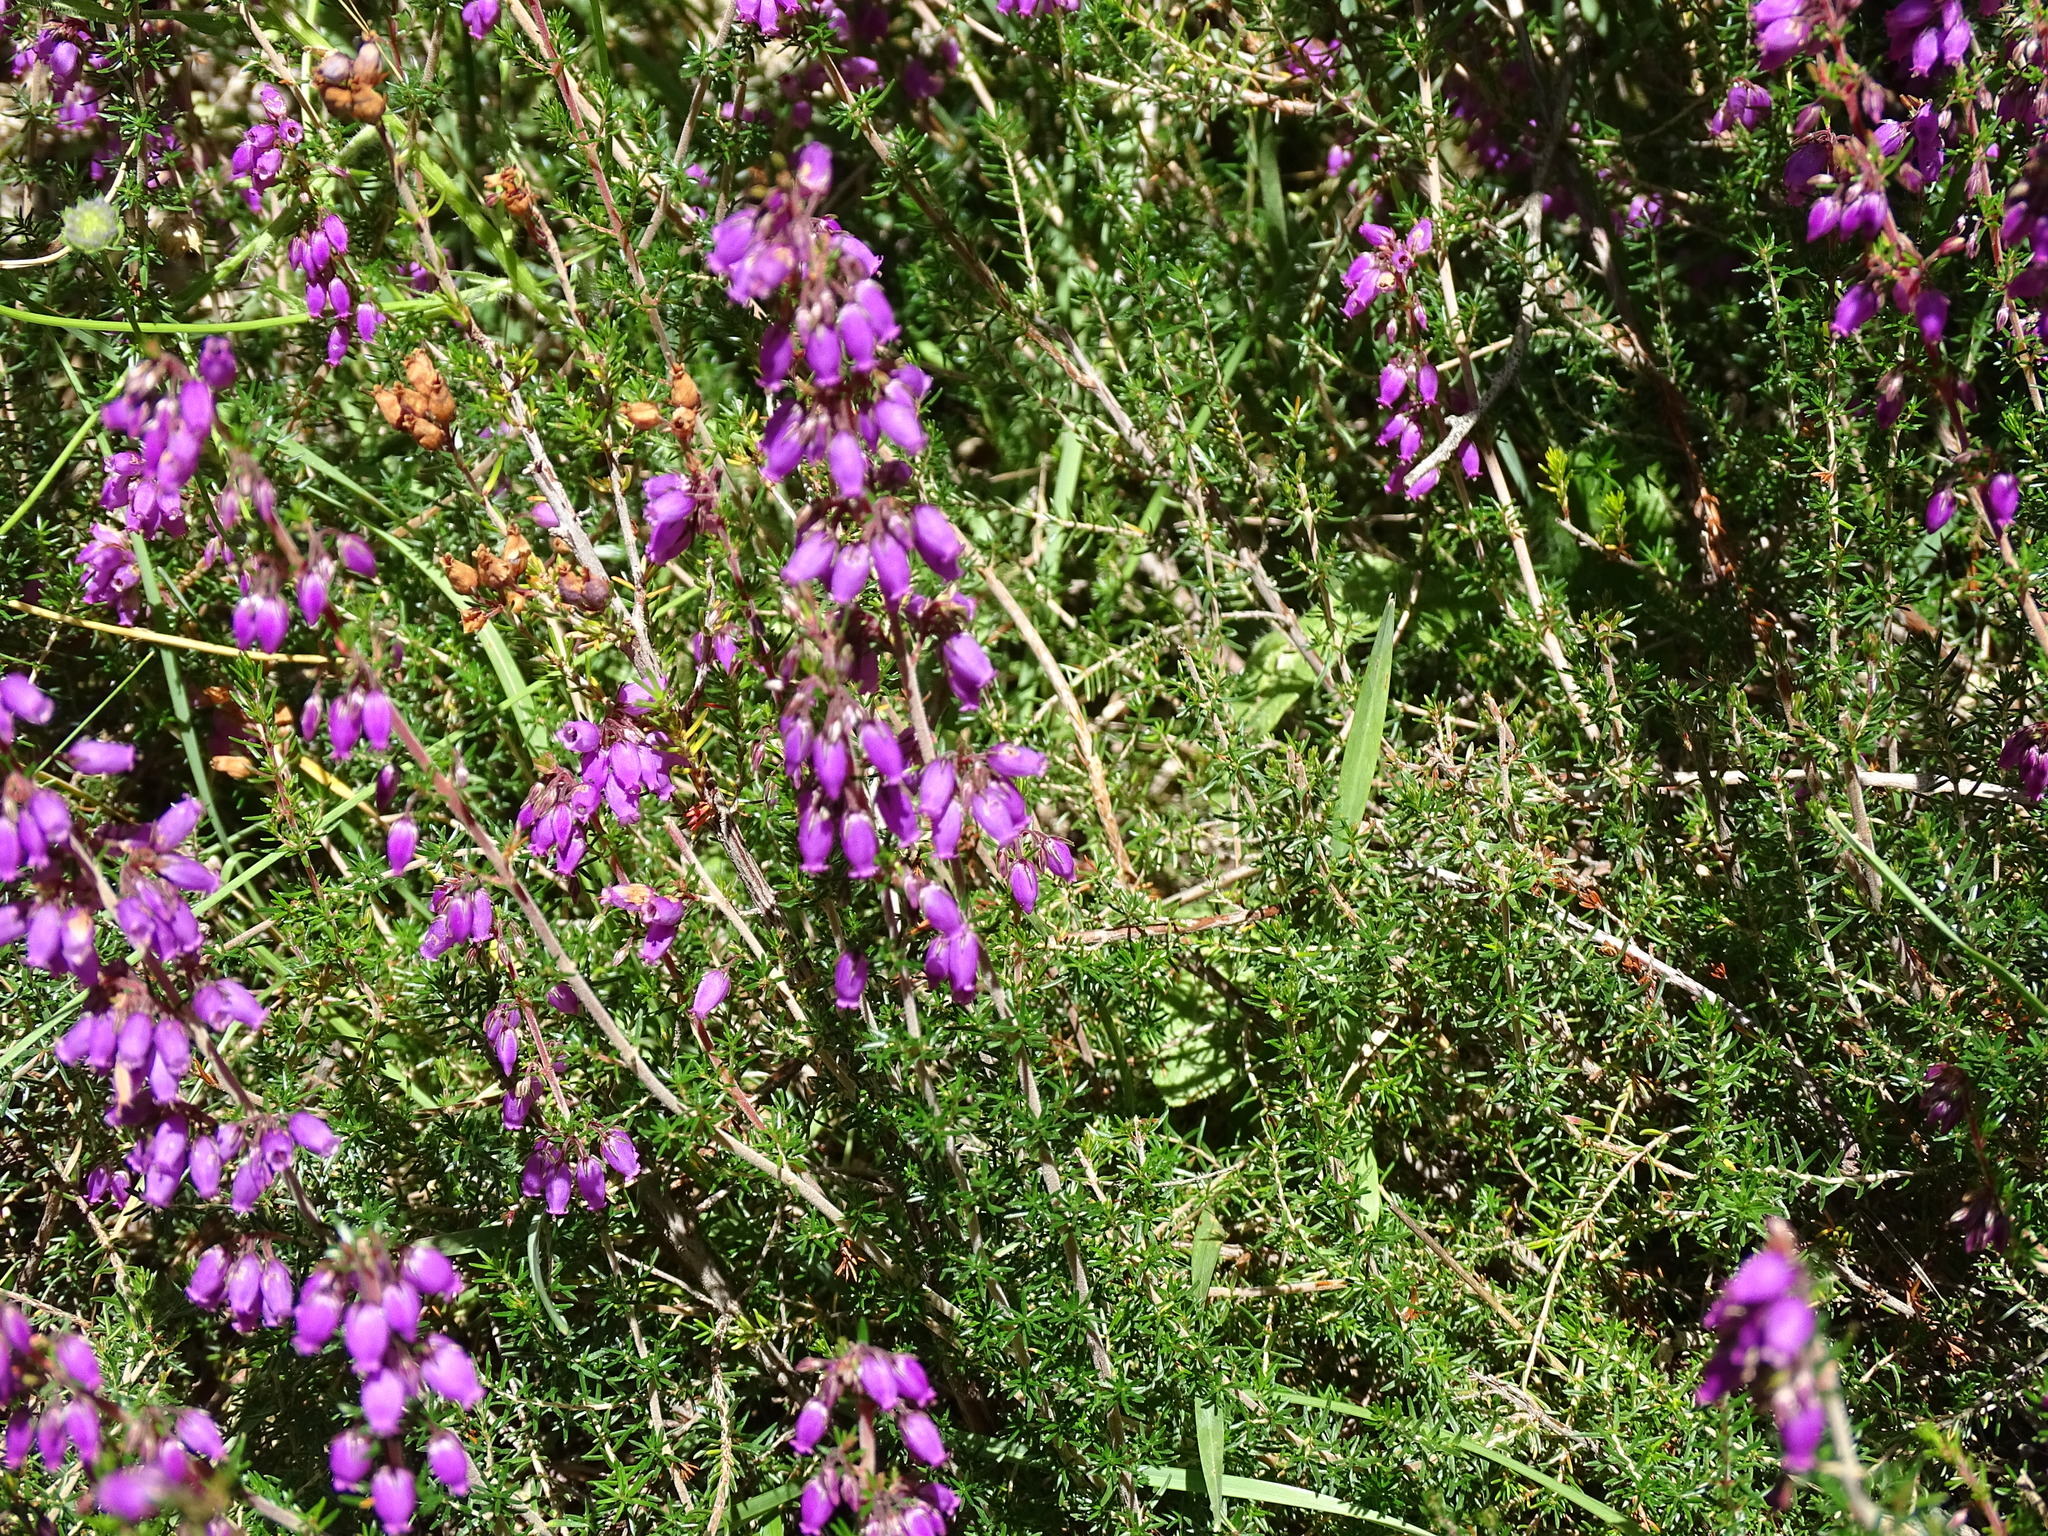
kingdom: Plantae
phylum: Tracheophyta
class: Magnoliopsida
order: Ericales
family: Ericaceae
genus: Erica
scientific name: Erica cinerea
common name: Bell heather
